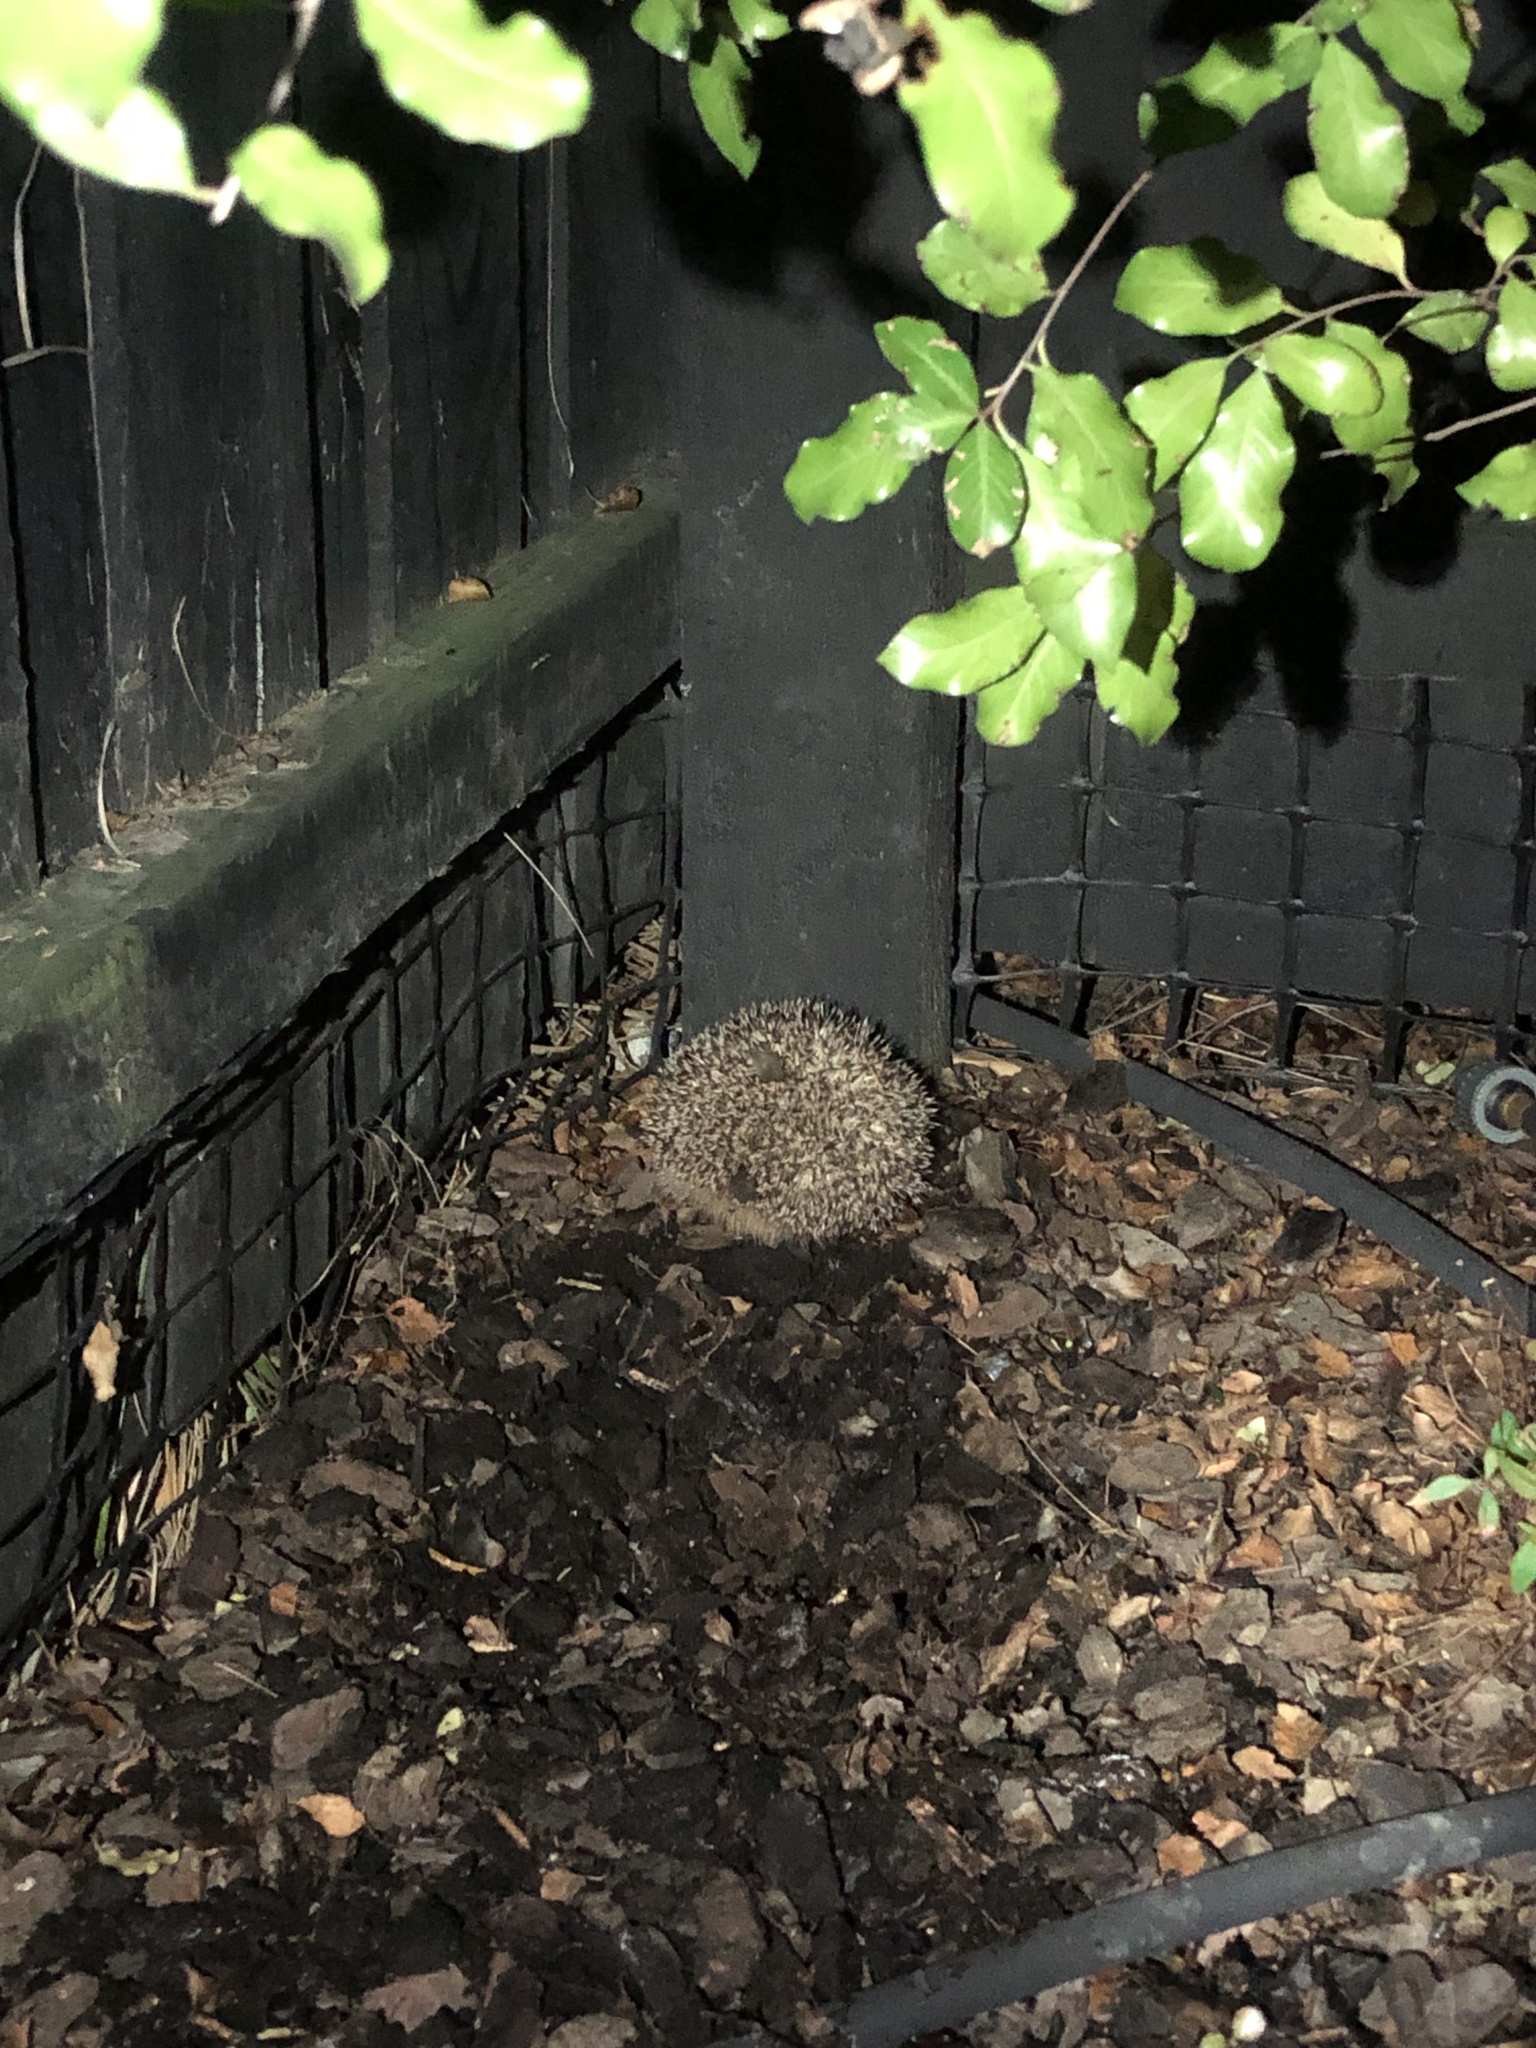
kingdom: Animalia
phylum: Chordata
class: Mammalia
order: Erinaceomorpha
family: Erinaceidae
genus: Erinaceus
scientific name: Erinaceus europaeus
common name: West european hedgehog
